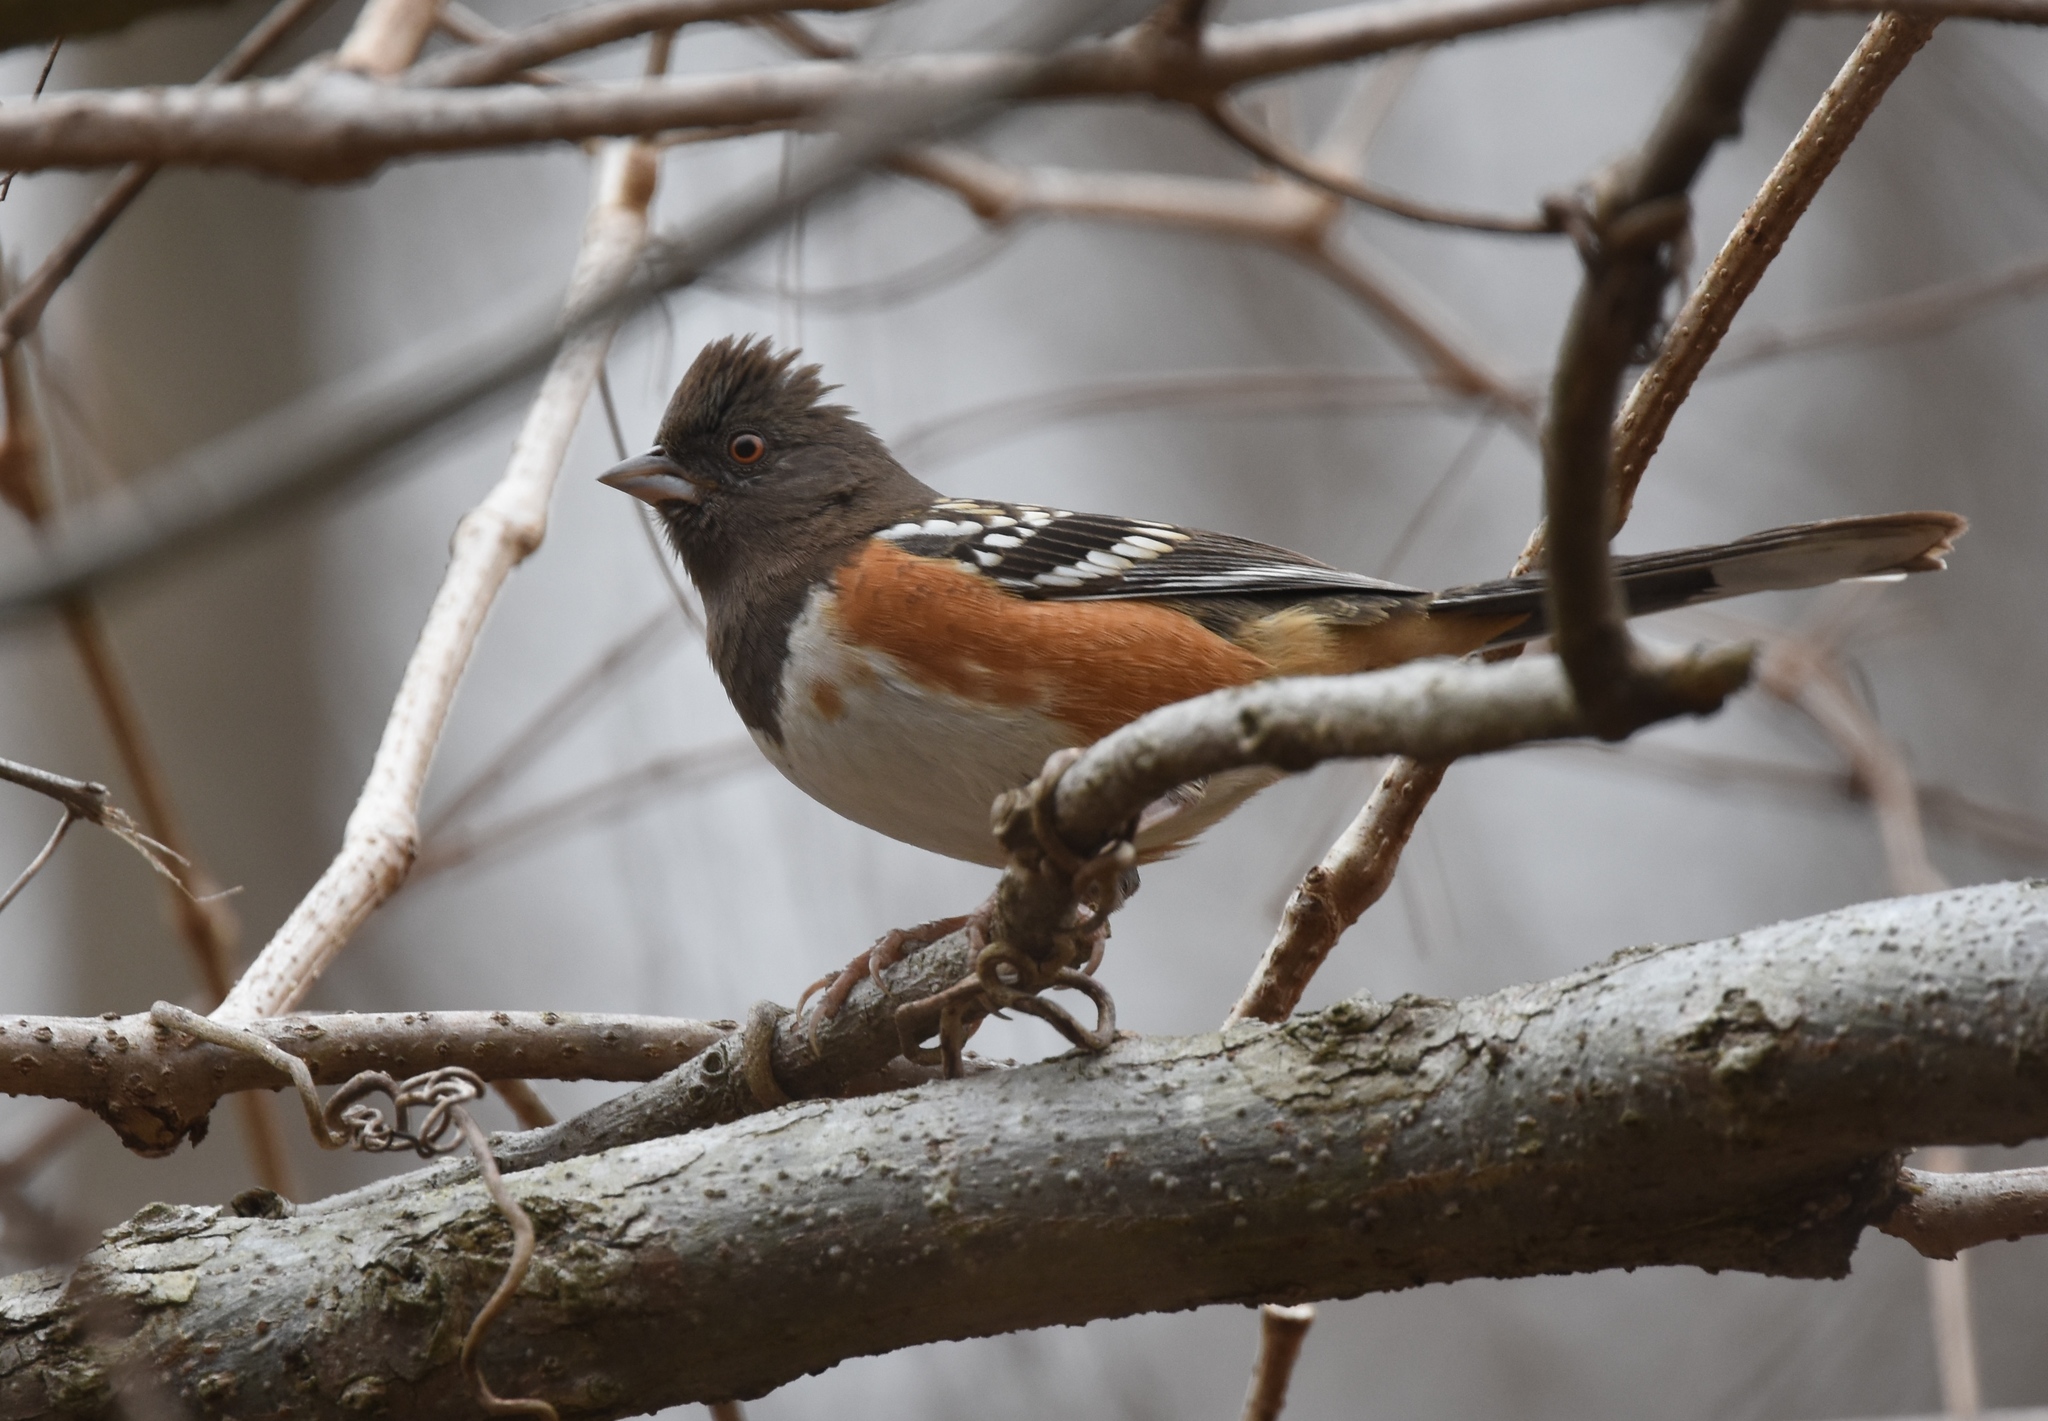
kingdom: Animalia
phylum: Chordata
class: Aves
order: Passeriformes
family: Passerellidae
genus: Pipilo
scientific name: Pipilo maculatus
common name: Spotted towhee
